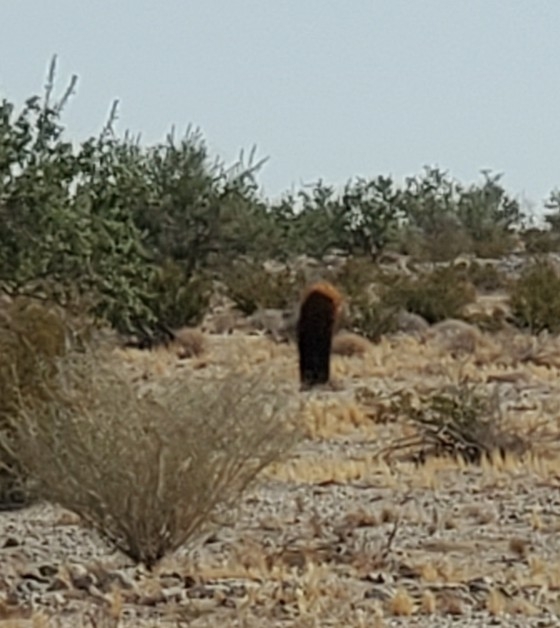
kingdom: Plantae
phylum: Tracheophyta
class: Magnoliopsida
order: Caryophyllales
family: Cactaceae
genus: Ferocactus
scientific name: Ferocactus cylindraceus
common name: California barrel cactus
